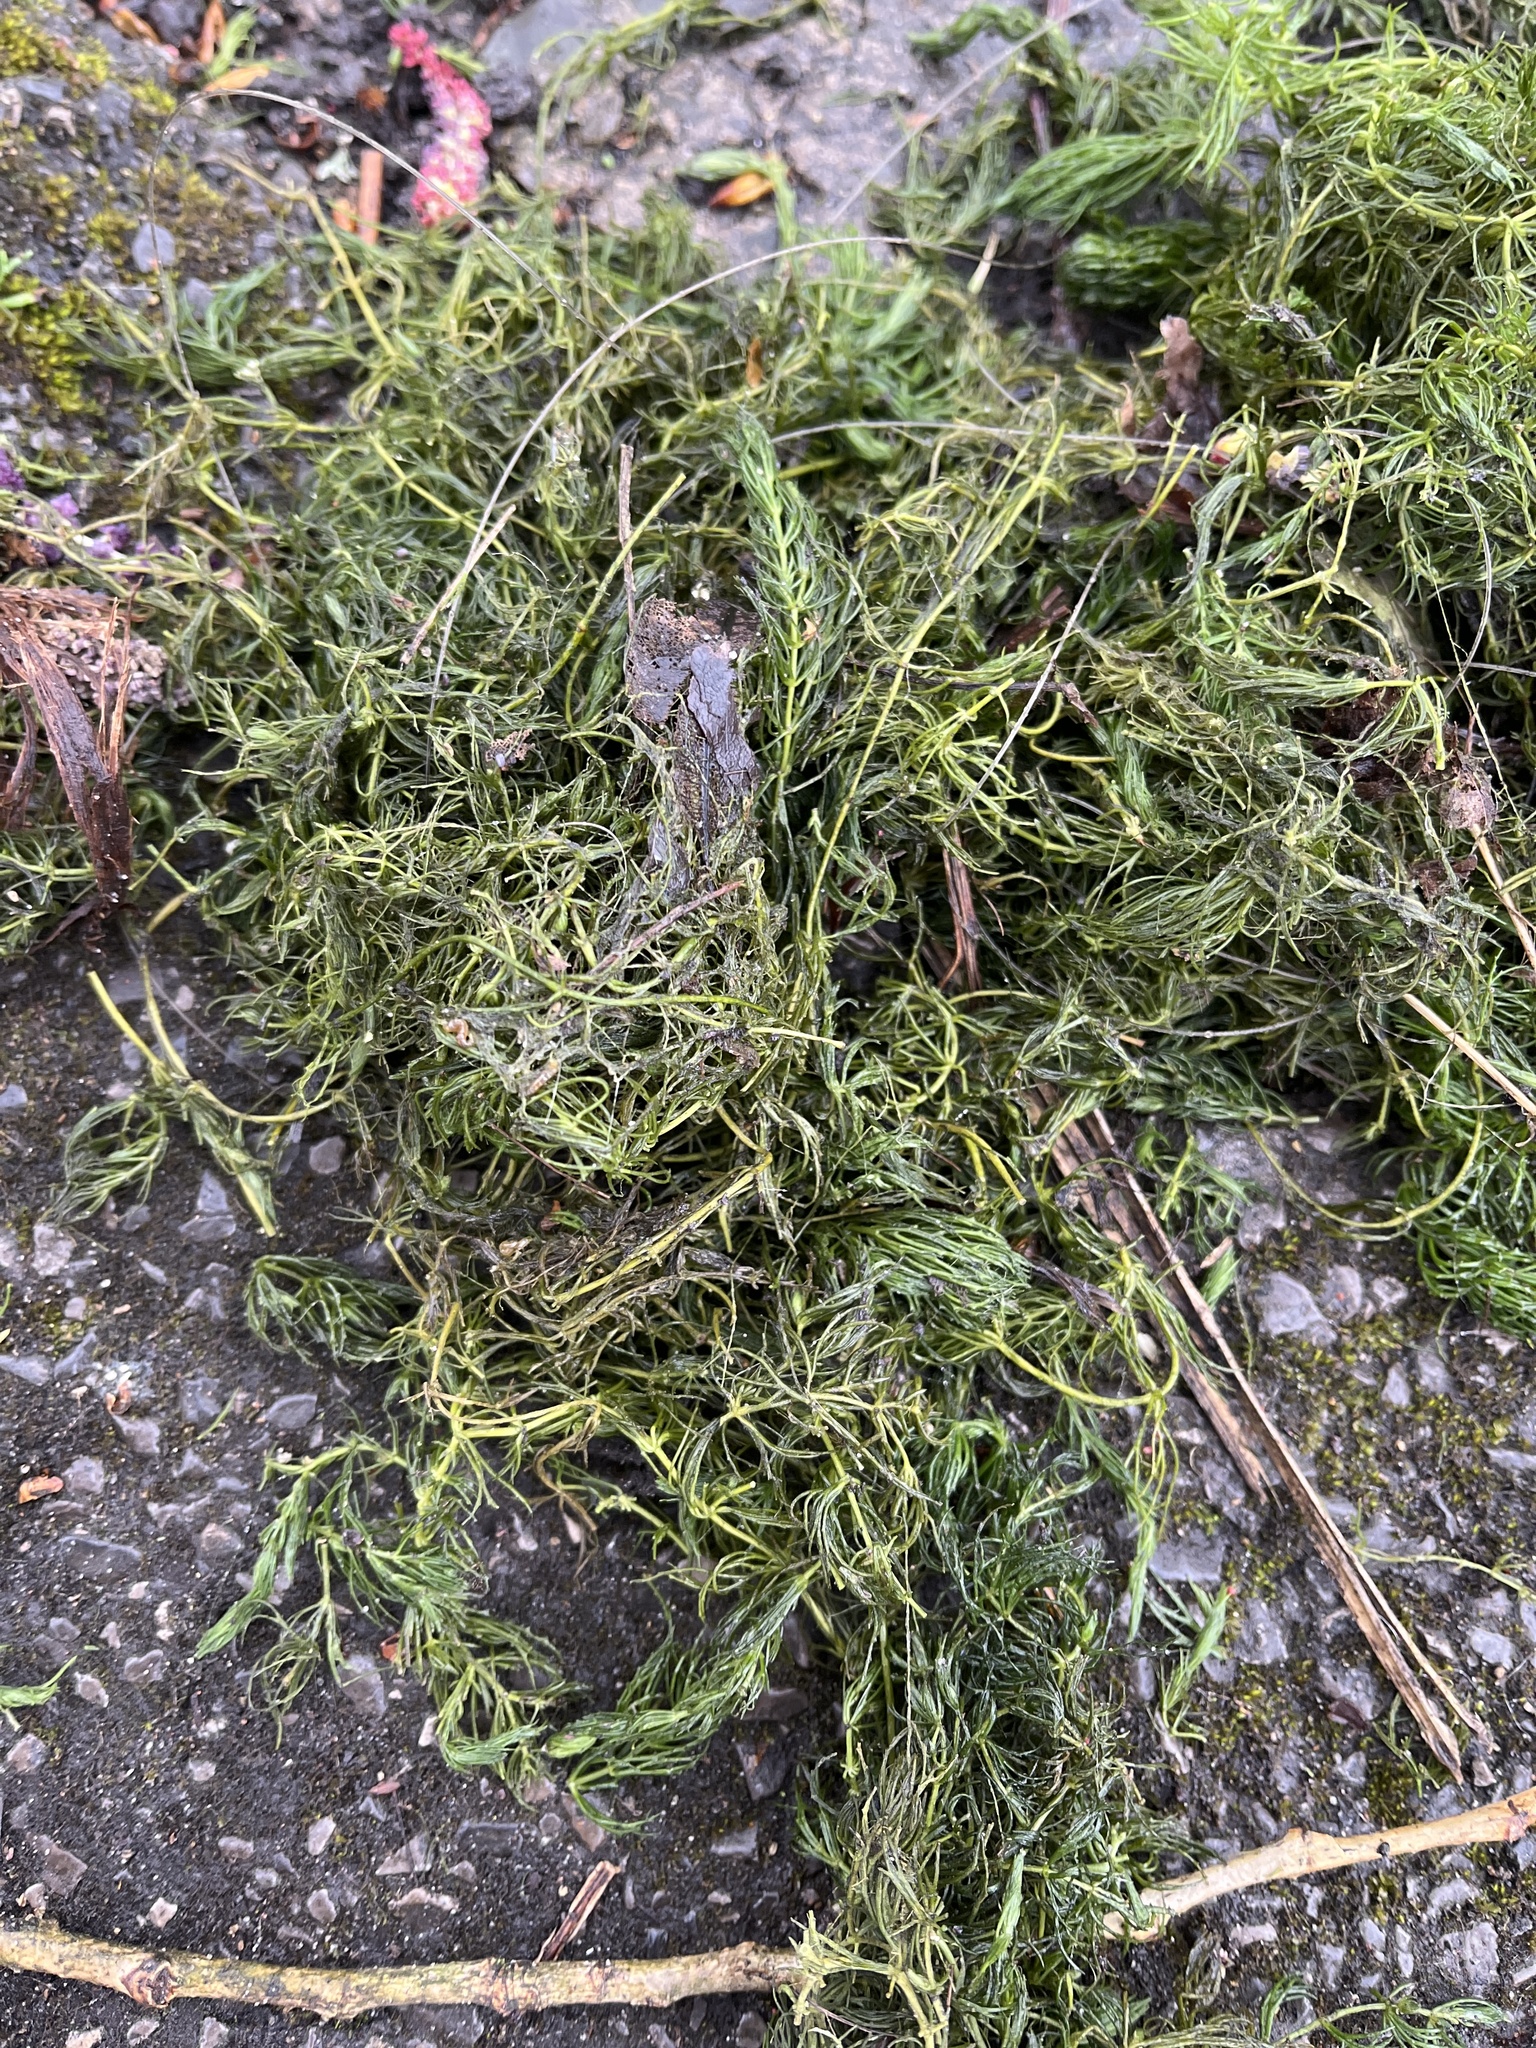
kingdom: Plantae
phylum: Tracheophyta
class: Magnoliopsida
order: Ceratophyllales
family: Ceratophyllaceae
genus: Ceratophyllum
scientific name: Ceratophyllum demersum
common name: Rigid hornwort
